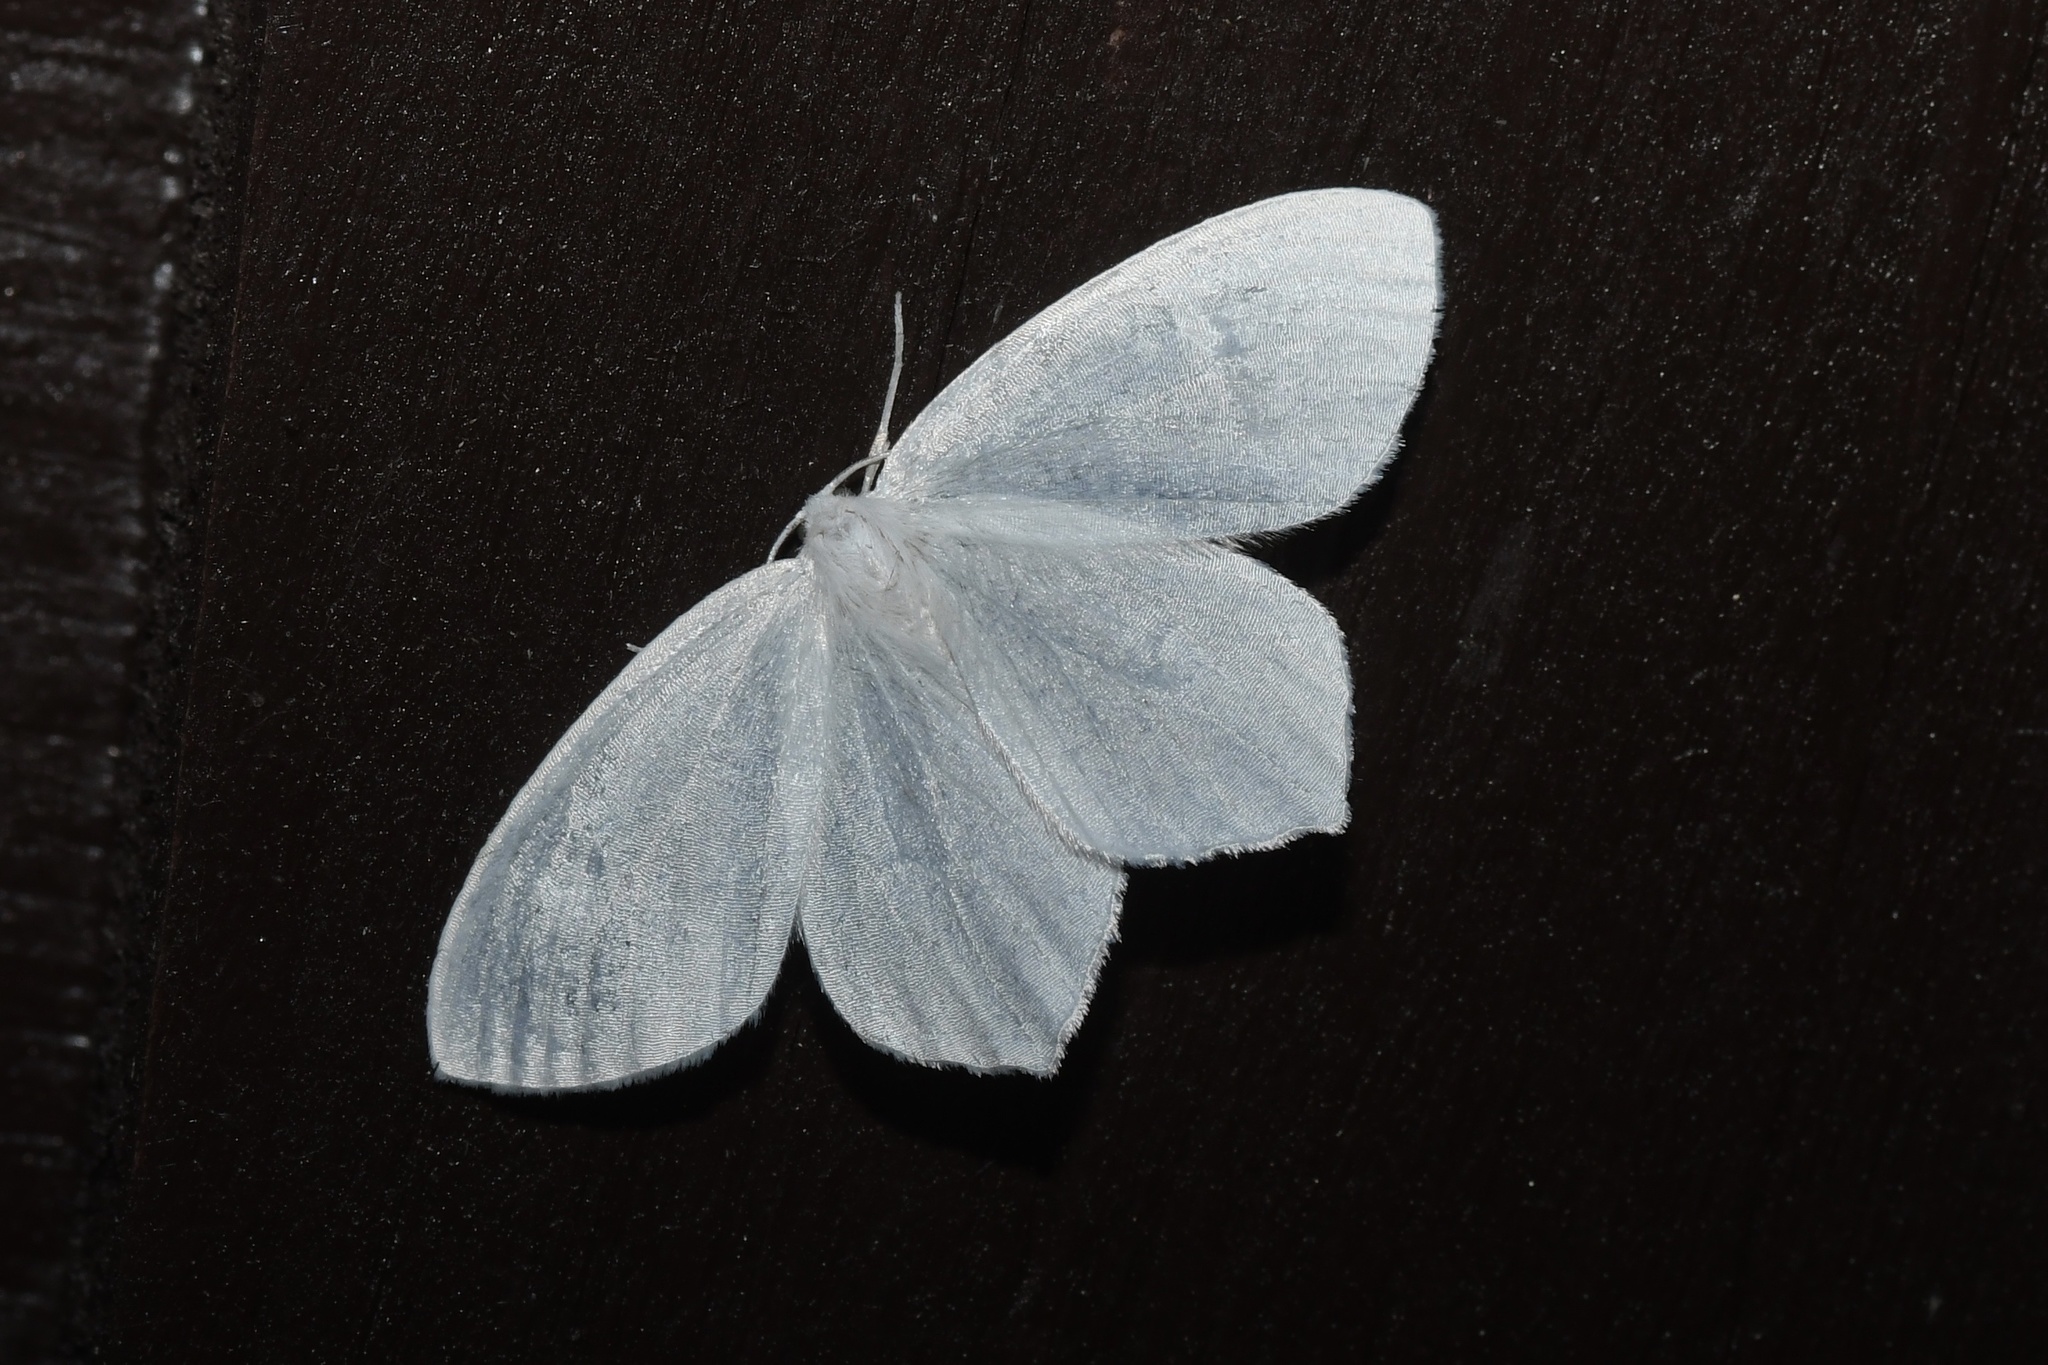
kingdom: Animalia
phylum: Arthropoda
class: Insecta
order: Lepidoptera
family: Geometridae
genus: Eugonobapta
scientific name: Eugonobapta nivosaria
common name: Snowy geometer
